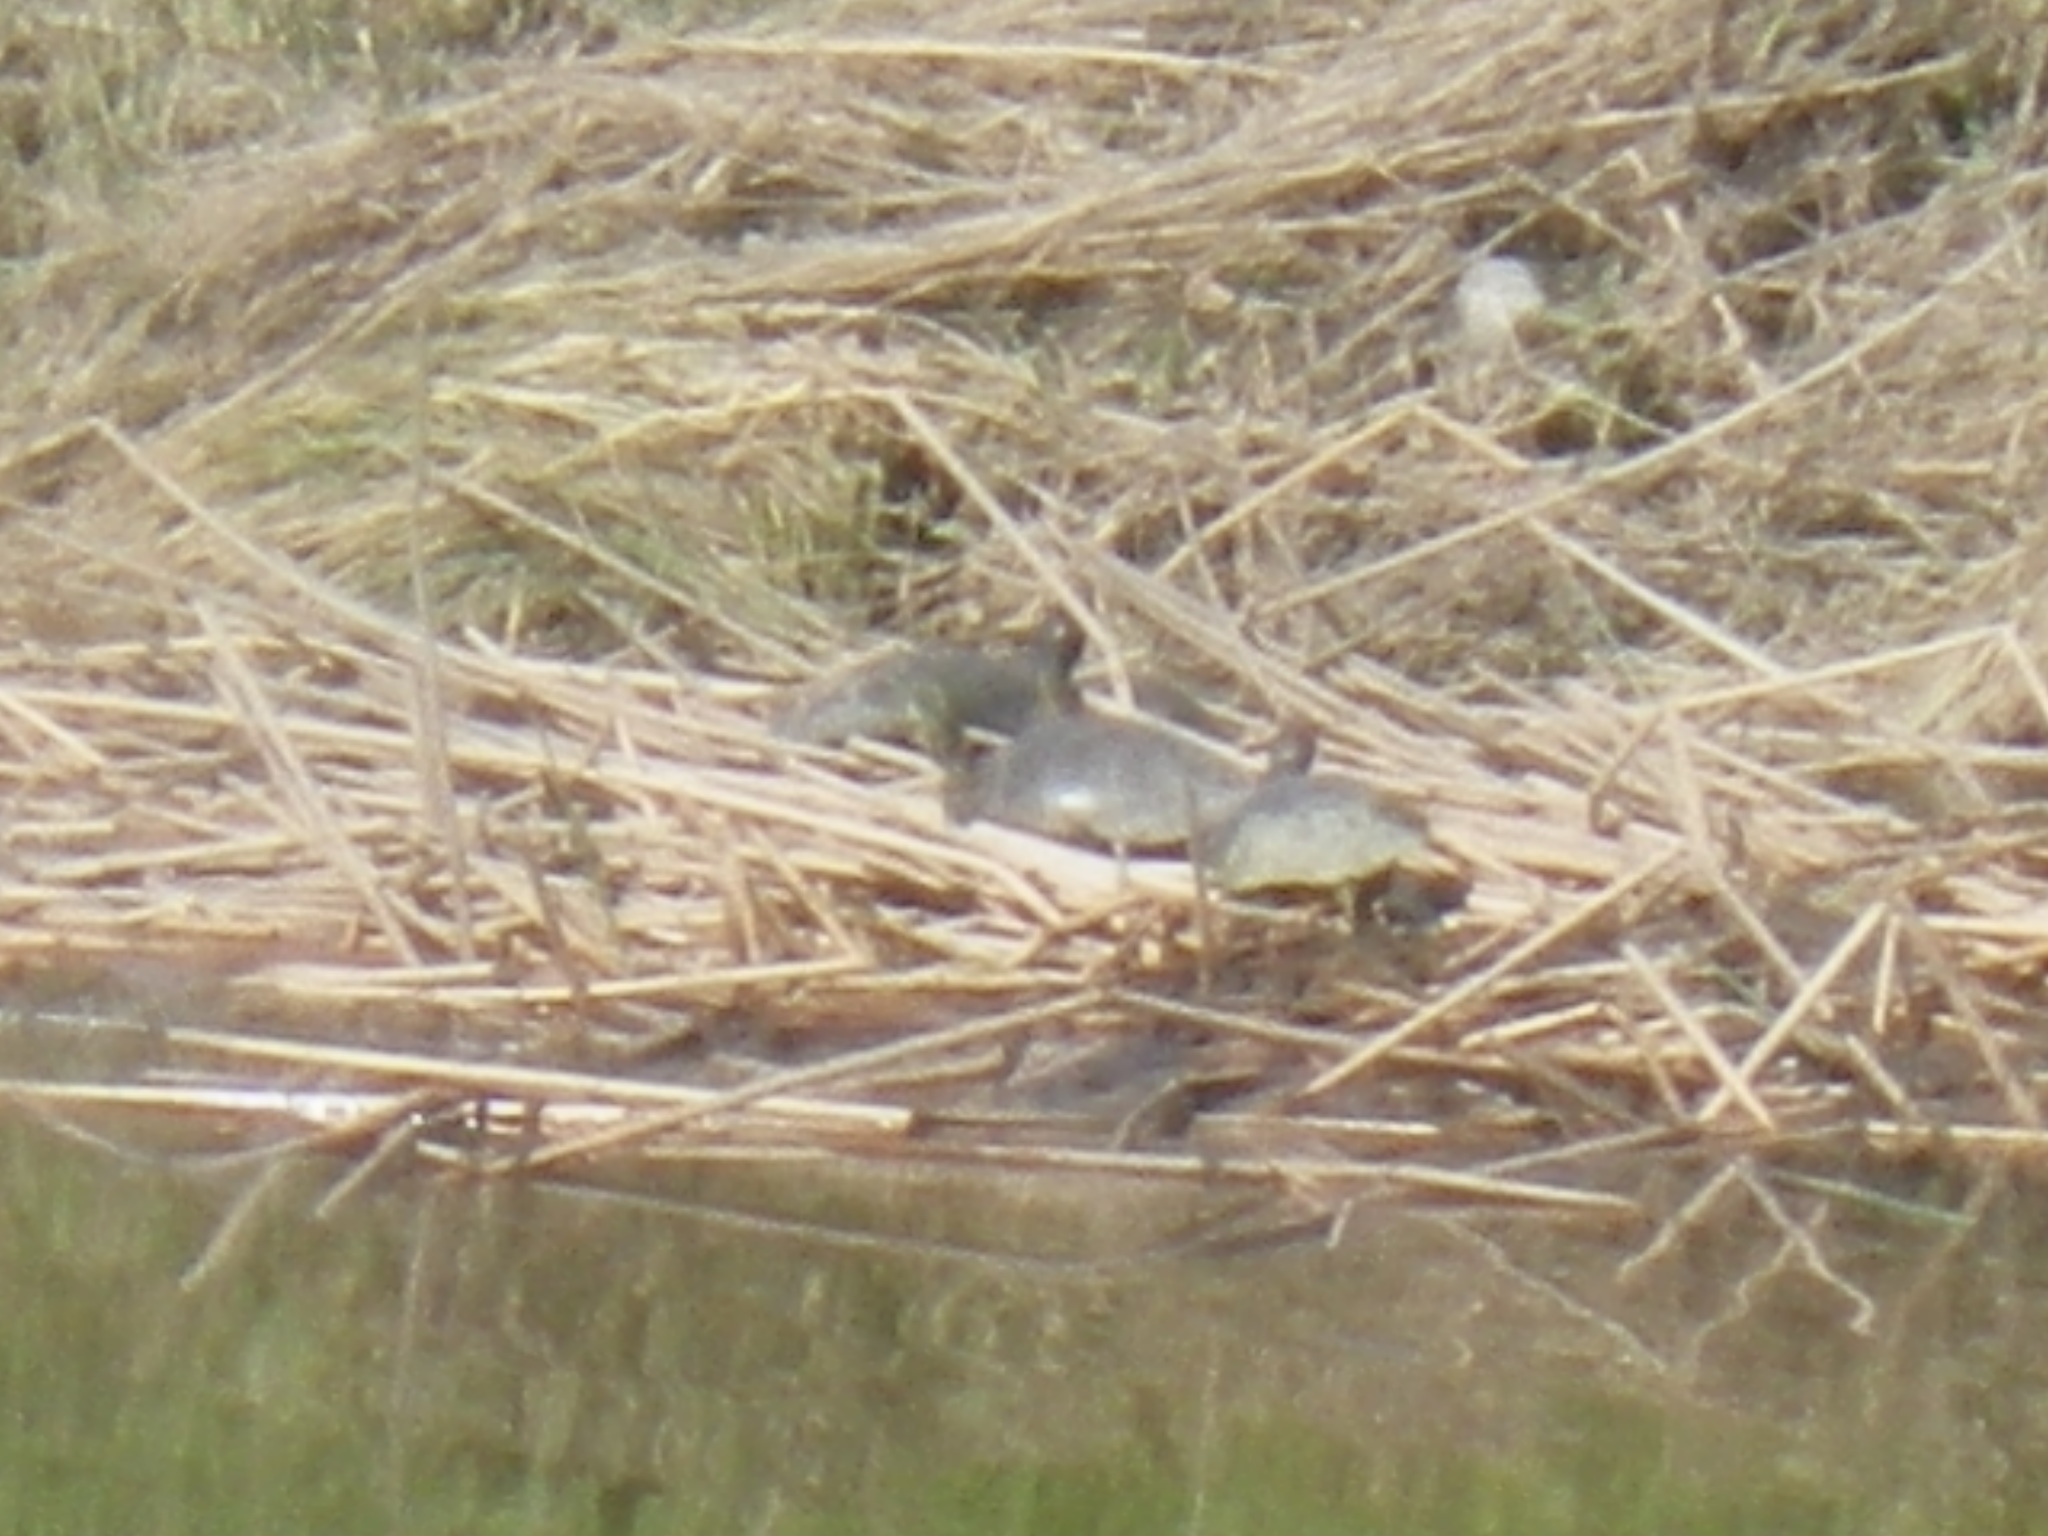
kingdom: Animalia
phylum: Chordata
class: Testudines
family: Emydidae
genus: Actinemys
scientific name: Actinemys marmorata
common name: Western pond turtle
